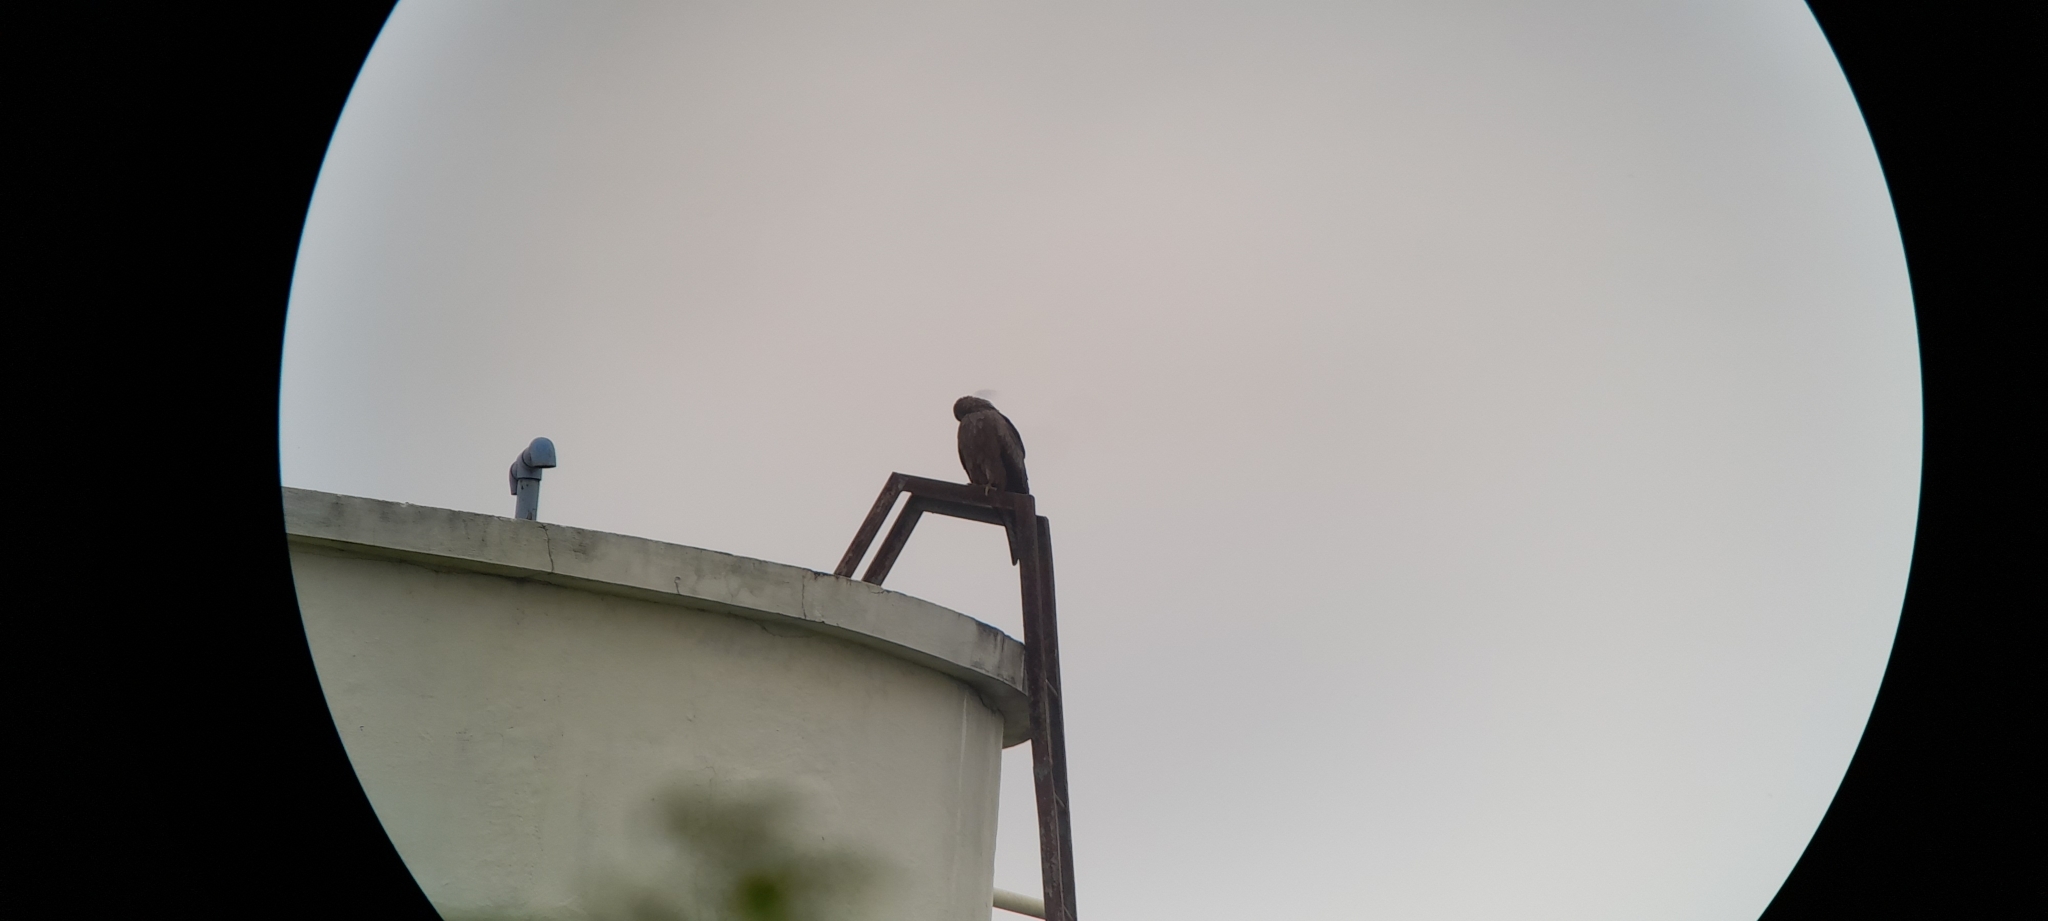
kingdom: Animalia
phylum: Chordata
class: Aves
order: Accipitriformes
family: Accipitridae
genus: Milvus
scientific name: Milvus migrans
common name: Black kite
